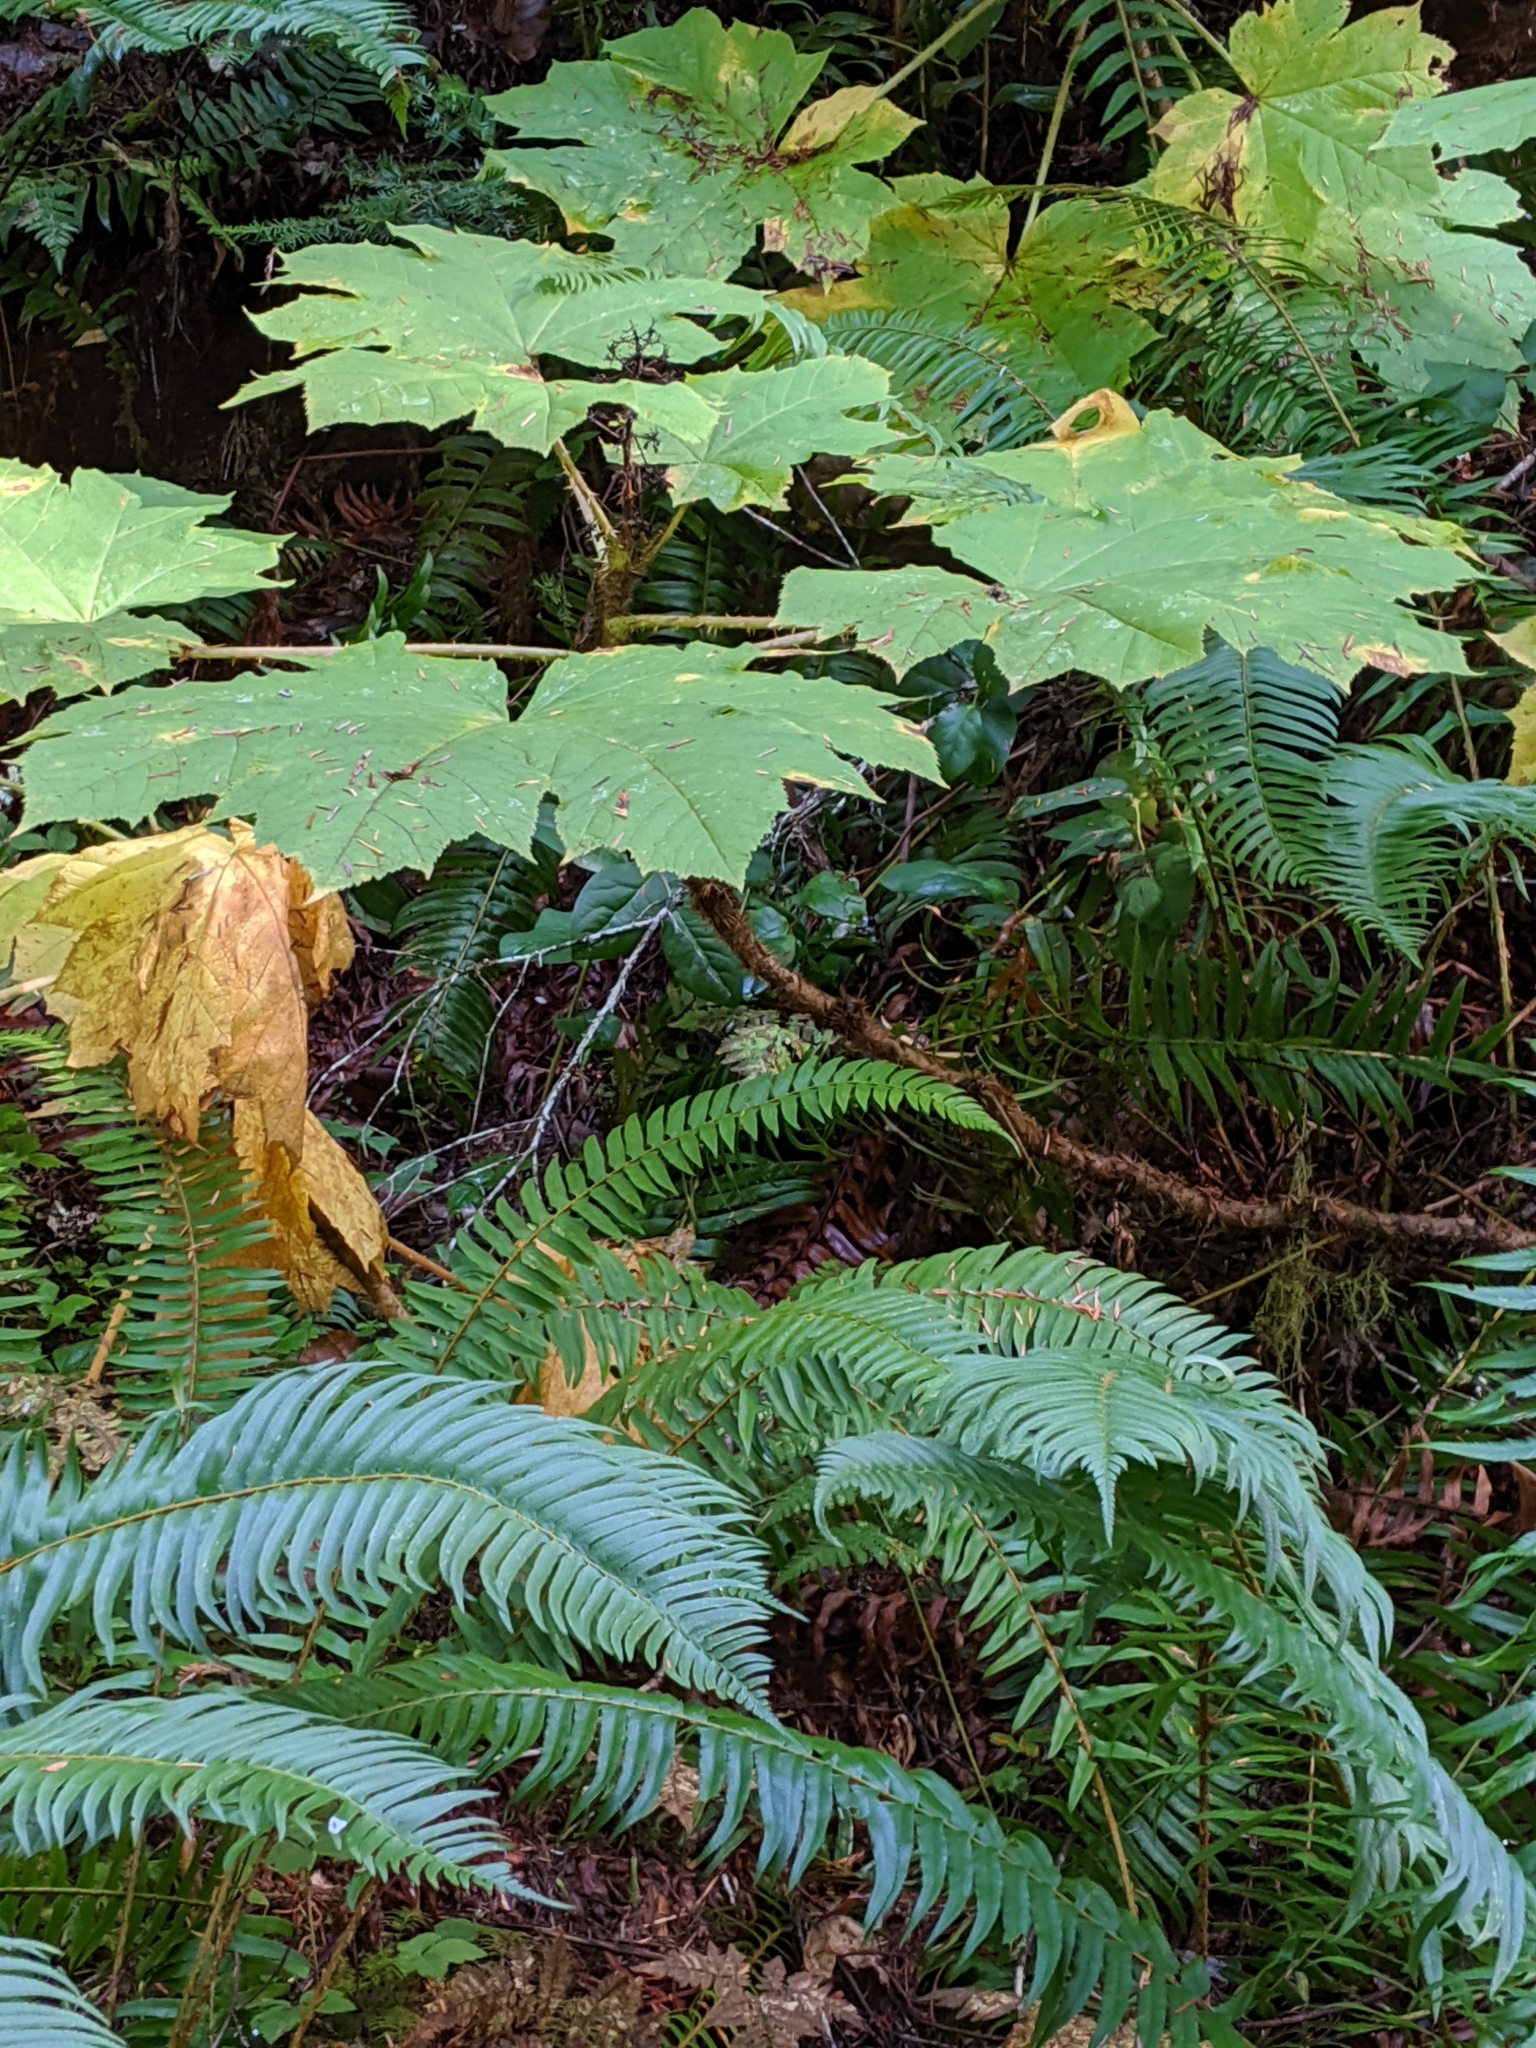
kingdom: Plantae
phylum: Tracheophyta
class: Magnoliopsida
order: Apiales
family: Araliaceae
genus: Oplopanax
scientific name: Oplopanax horridus
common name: Devil's walking-stick
